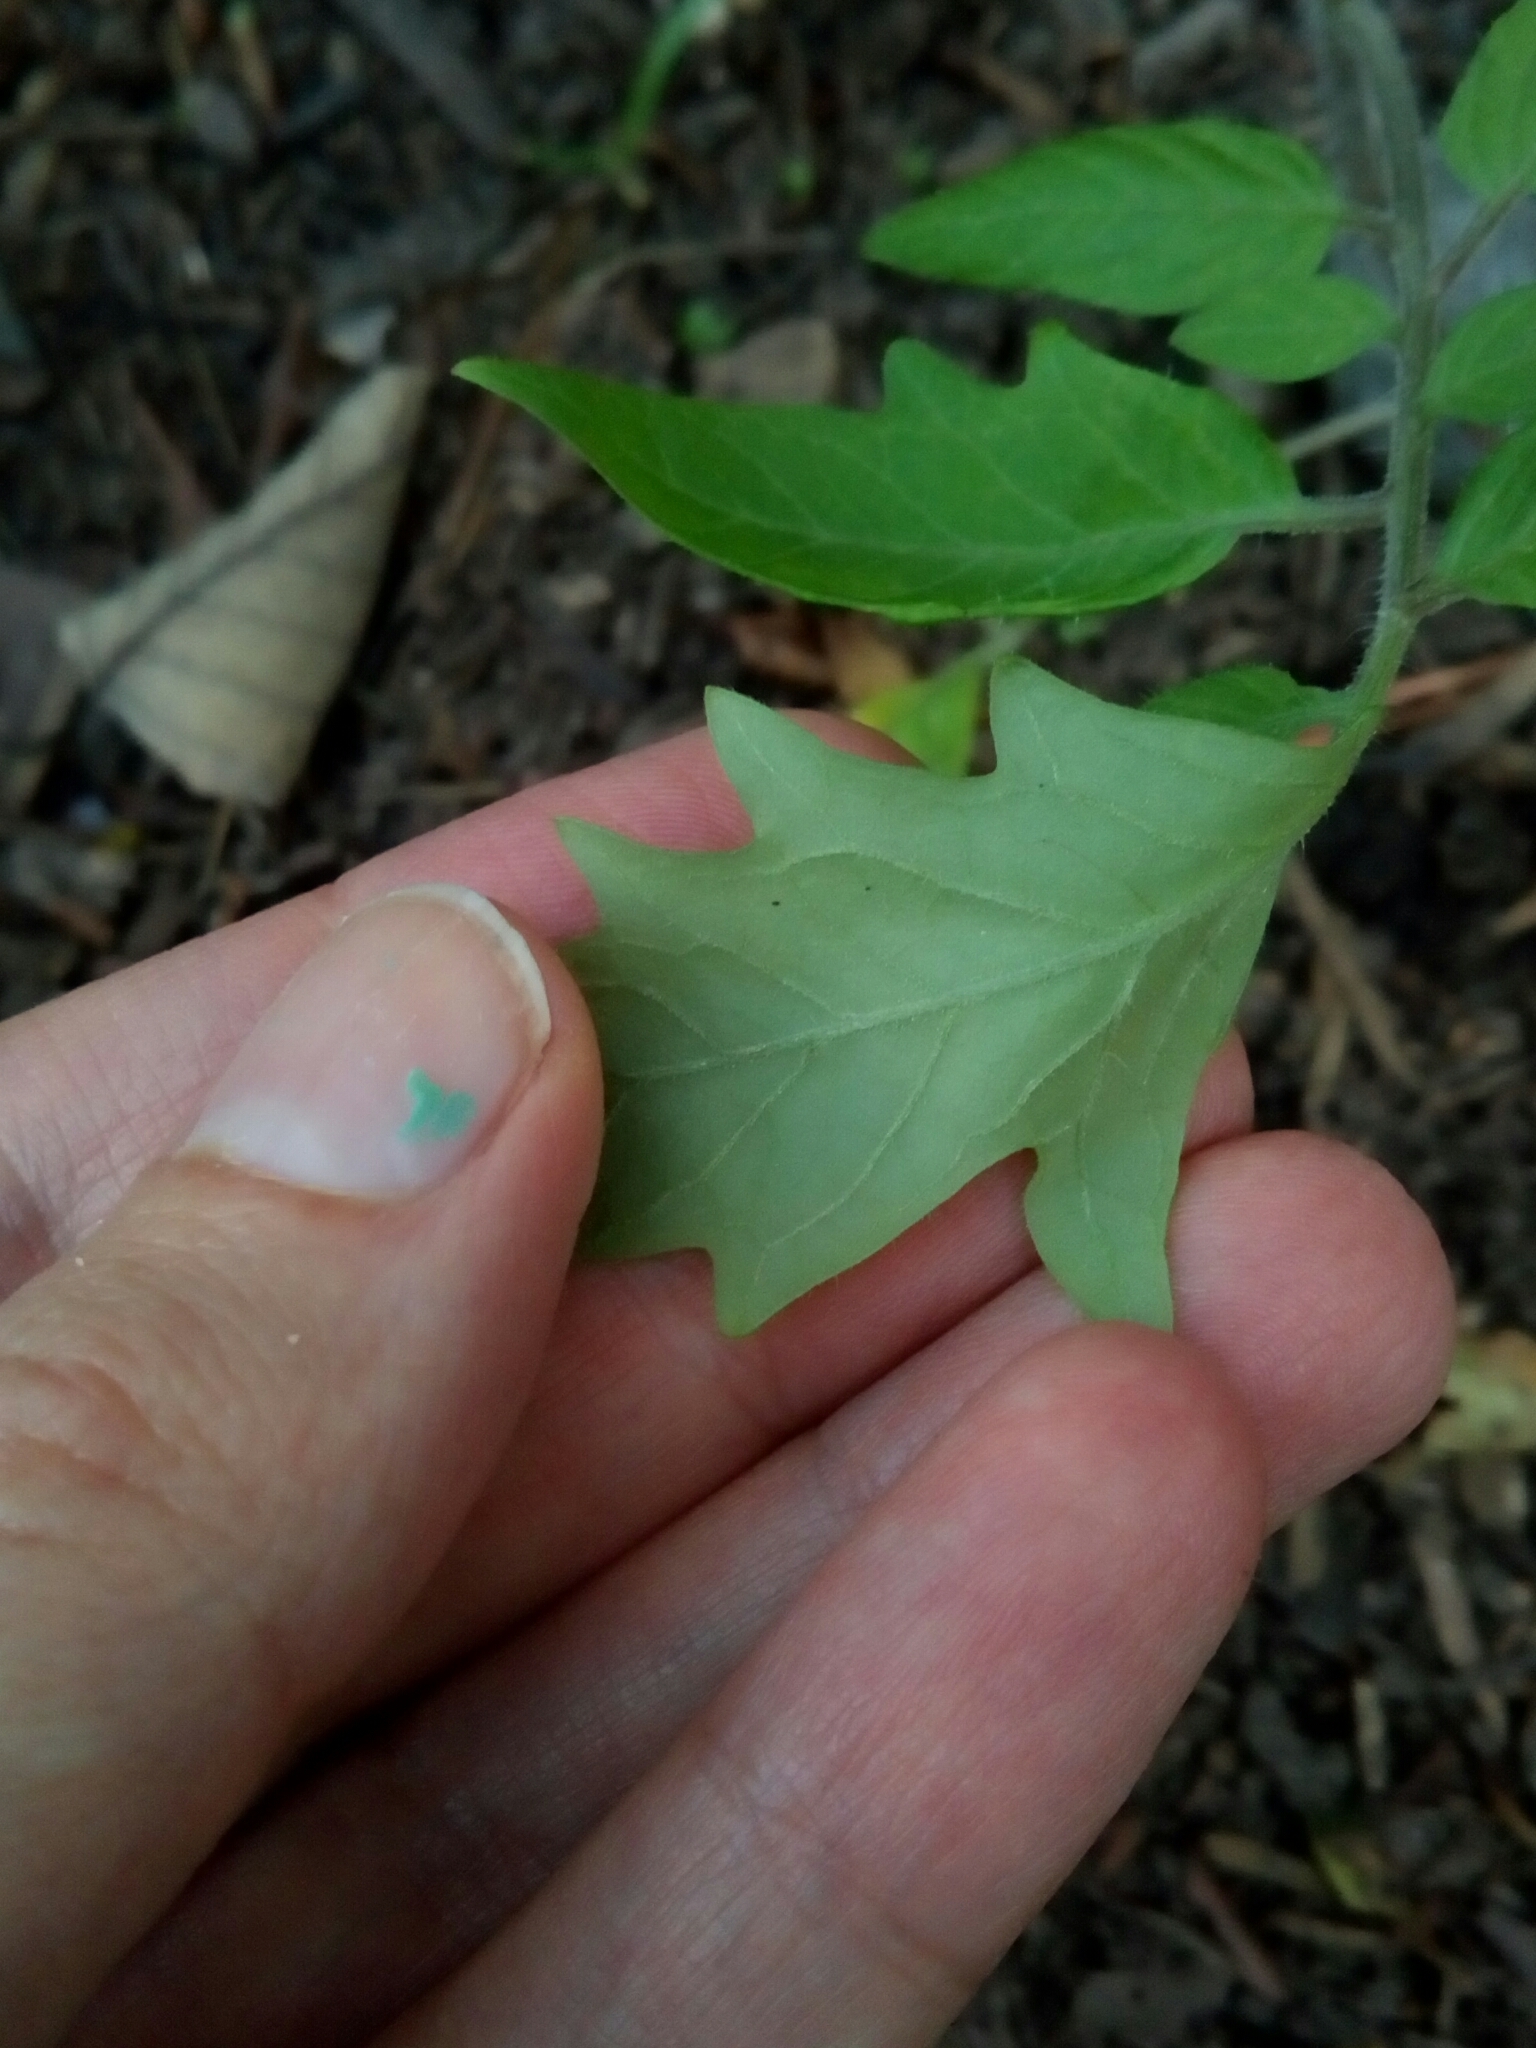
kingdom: Plantae
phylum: Tracheophyta
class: Magnoliopsida
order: Solanales
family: Solanaceae
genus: Solanum
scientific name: Solanum lycopersicum
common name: Garden tomato
